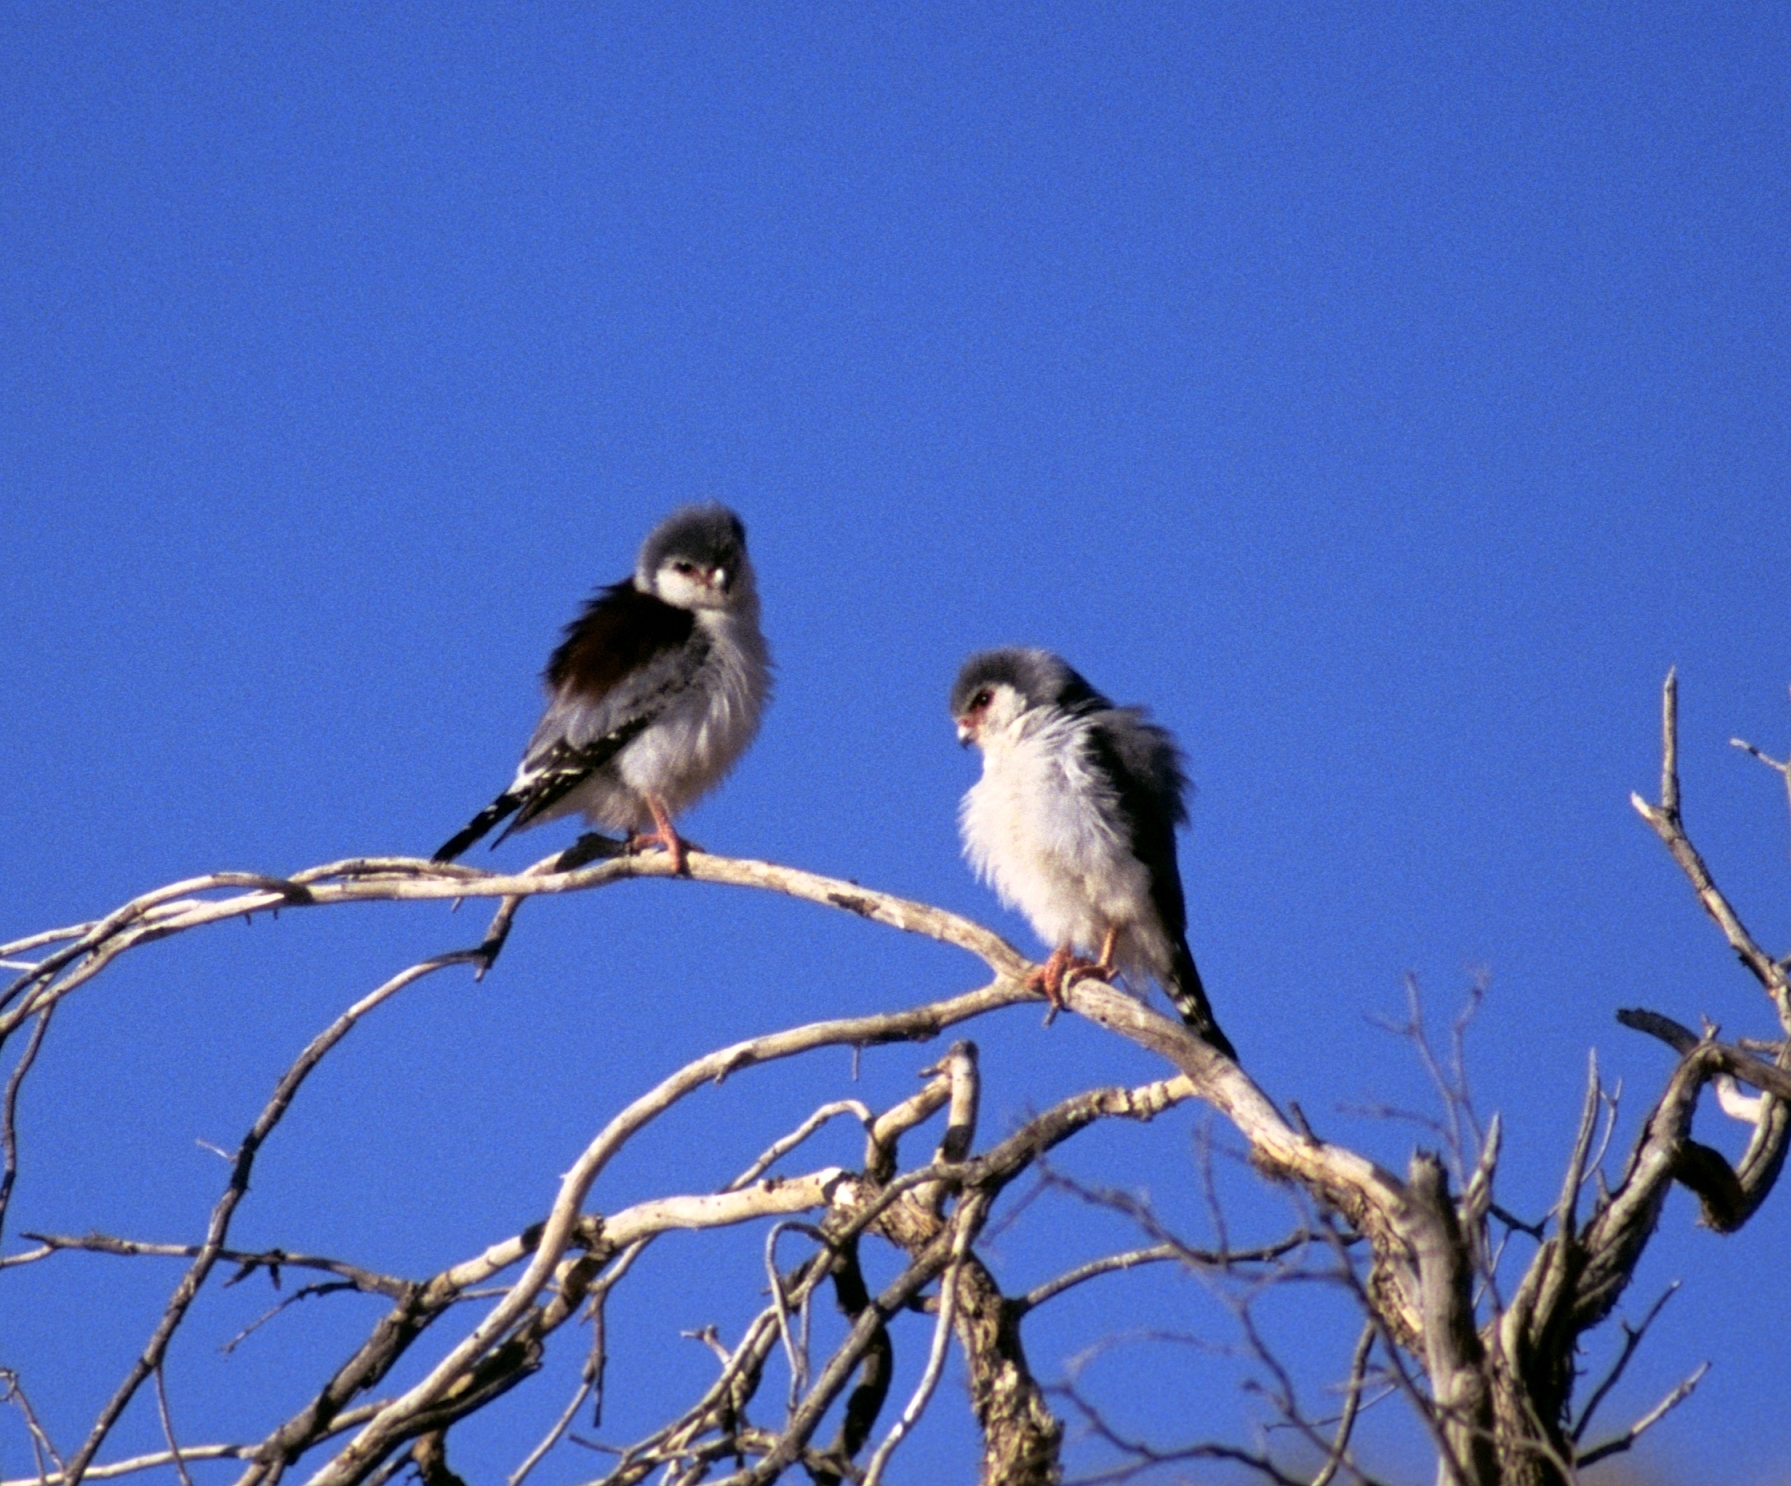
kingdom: Animalia
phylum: Chordata
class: Aves
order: Falconiformes
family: Falconidae
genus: Polihierax
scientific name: Polihierax semitorquatus
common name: Pygmy falcon
